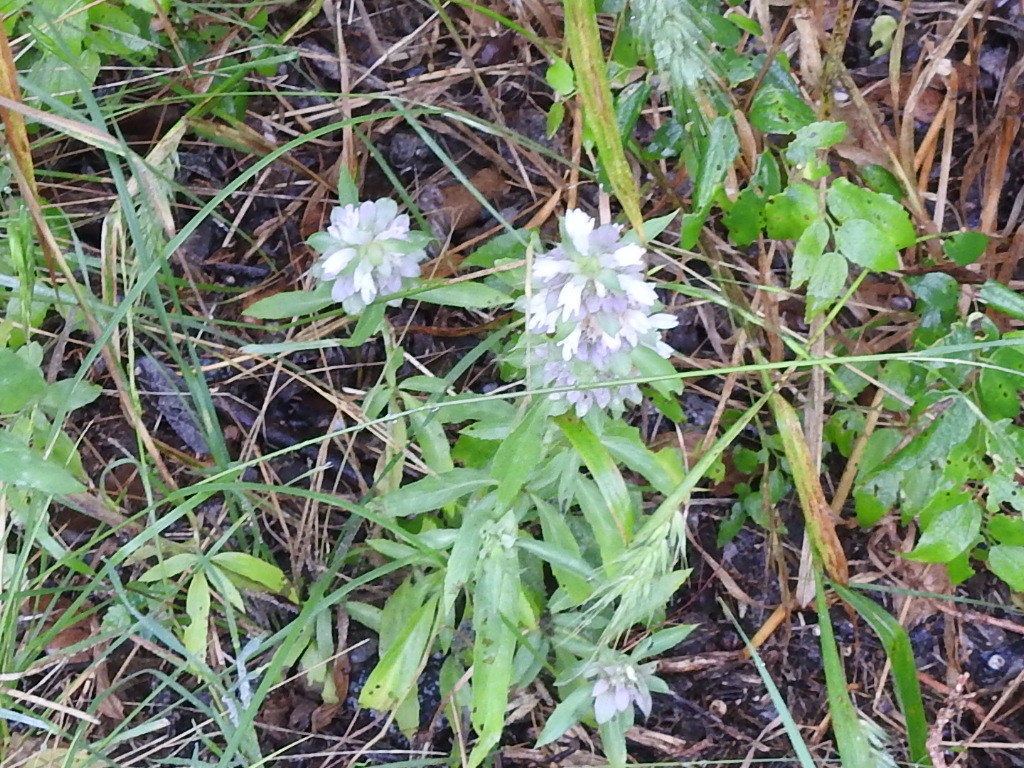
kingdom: Plantae
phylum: Tracheophyta
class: Magnoliopsida
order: Lamiales
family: Lamiaceae
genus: Monarda
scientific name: Monarda citriodora
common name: Lemon beebalm
